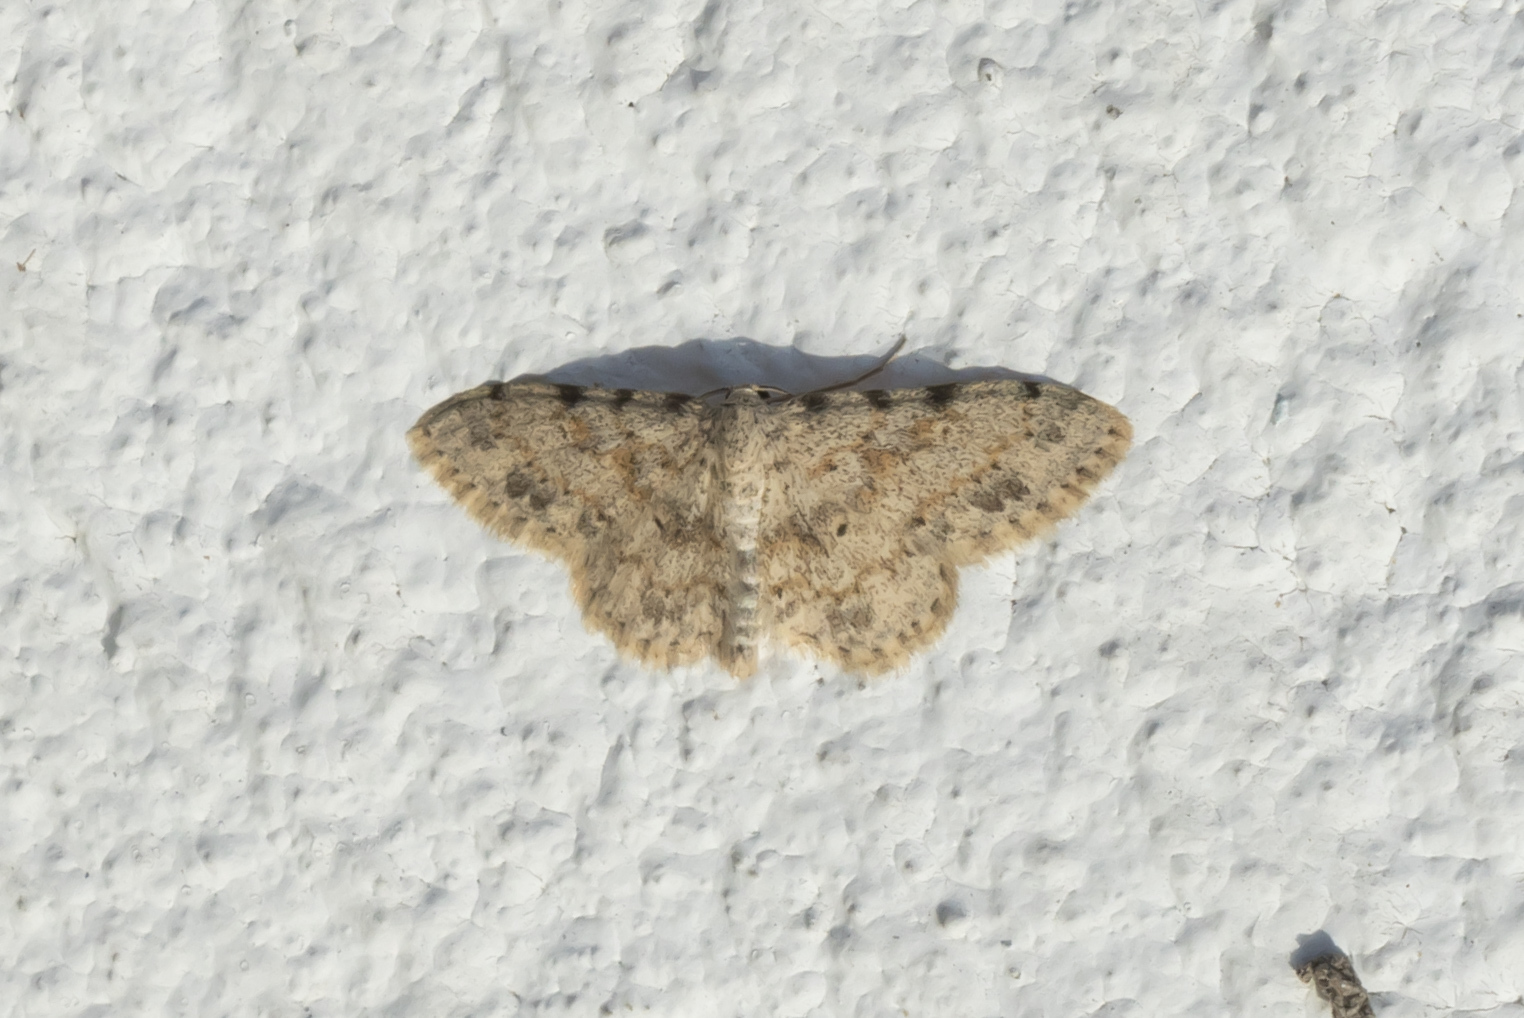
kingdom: Animalia
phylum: Arthropoda
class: Insecta
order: Lepidoptera
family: Geometridae
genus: Scopula
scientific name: Scopula luridata
